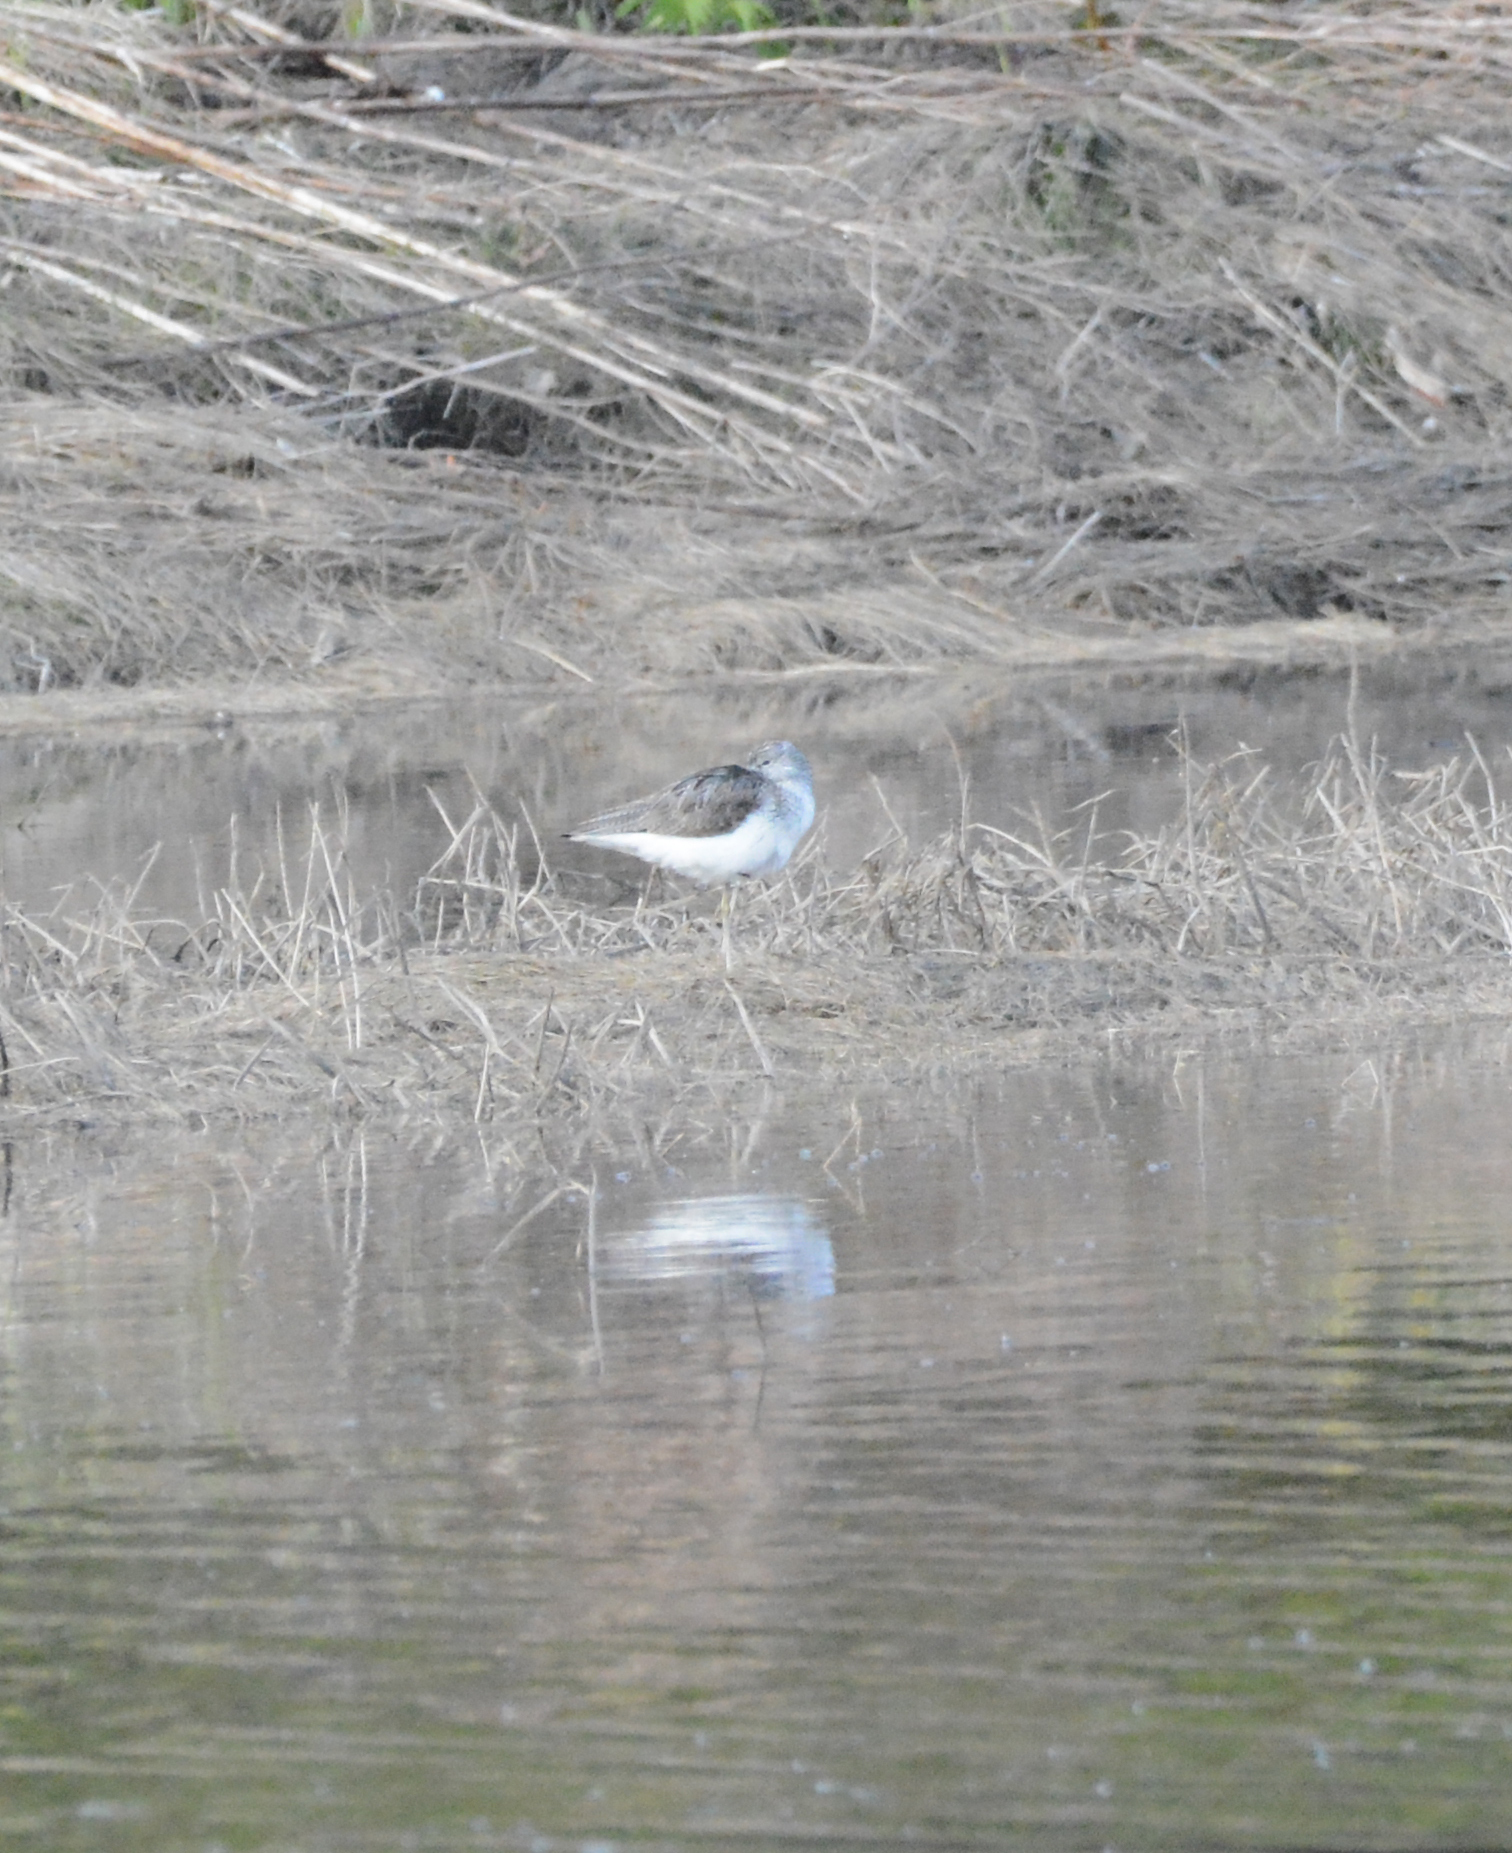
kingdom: Animalia
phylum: Chordata
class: Aves
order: Charadriiformes
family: Scolopacidae
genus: Tringa
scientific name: Tringa nebularia
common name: Common greenshank
